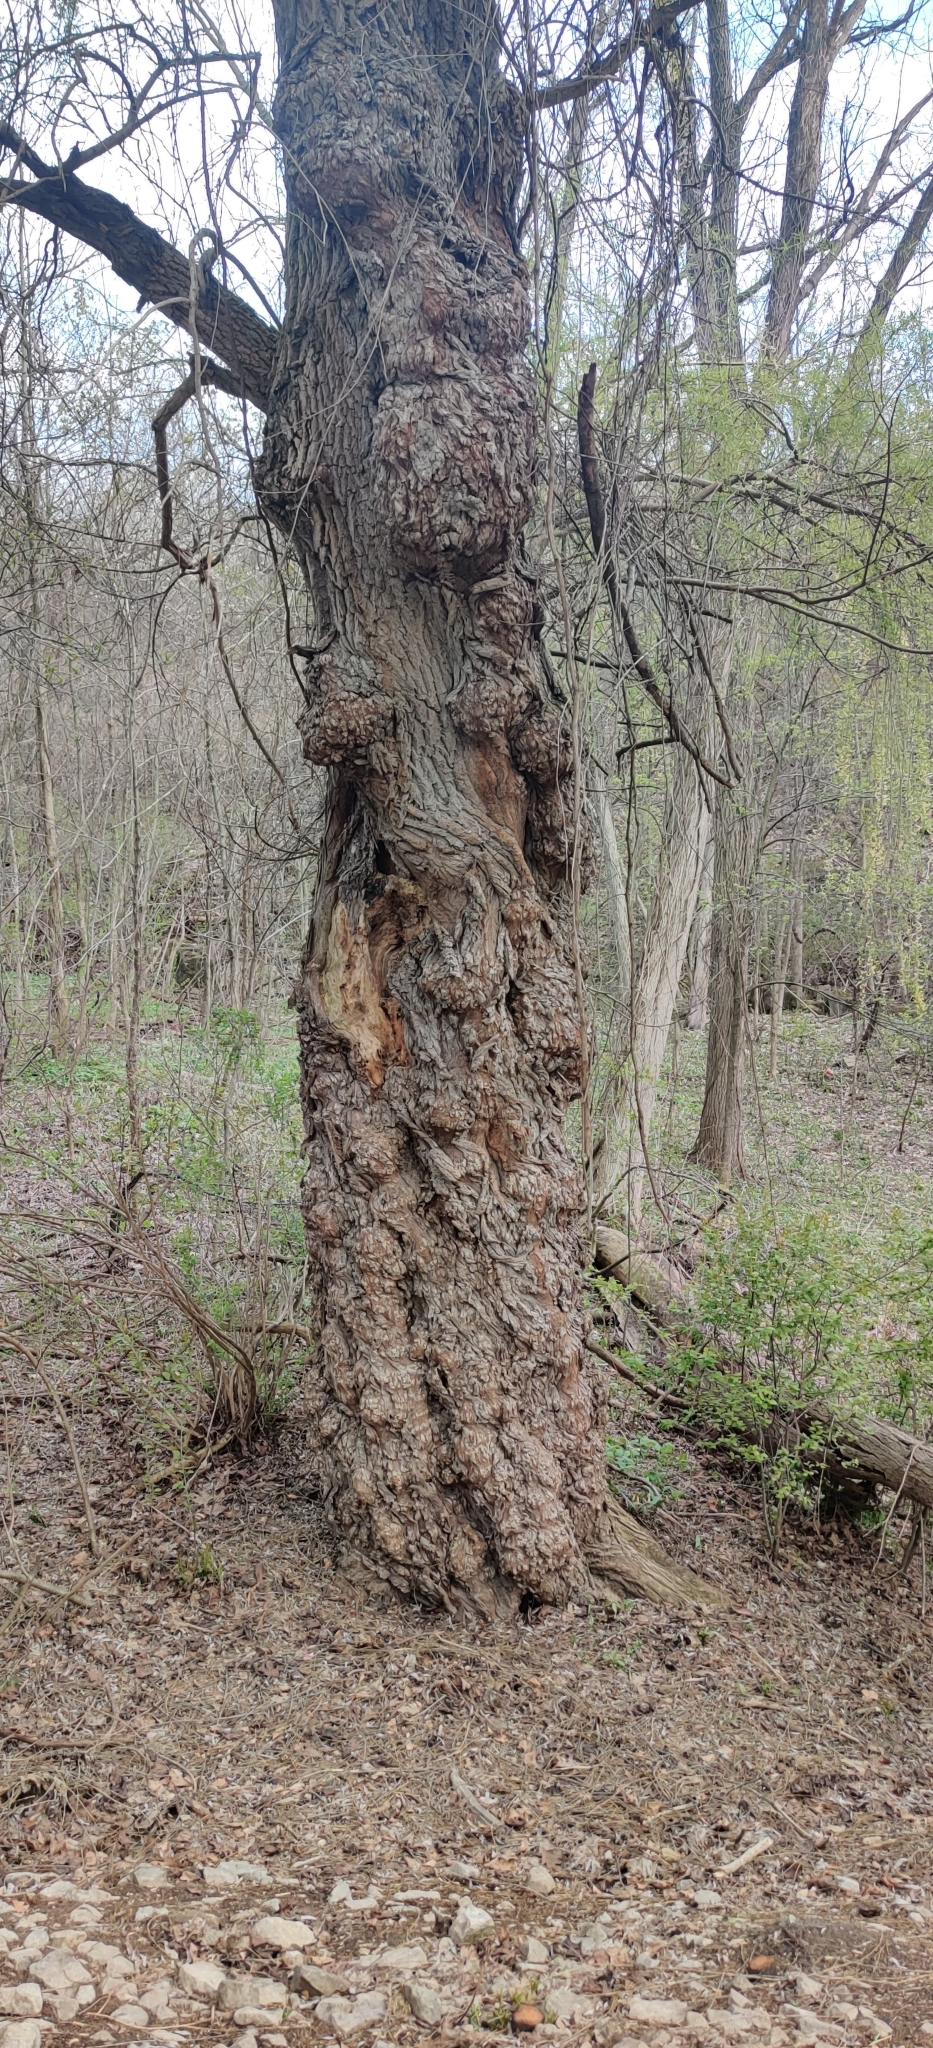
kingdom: Plantae
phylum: Tracheophyta
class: Magnoliopsida
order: Malpighiales
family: Salicaceae
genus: Salix
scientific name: Salix pendulina
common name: Wisconsin weeping willow
